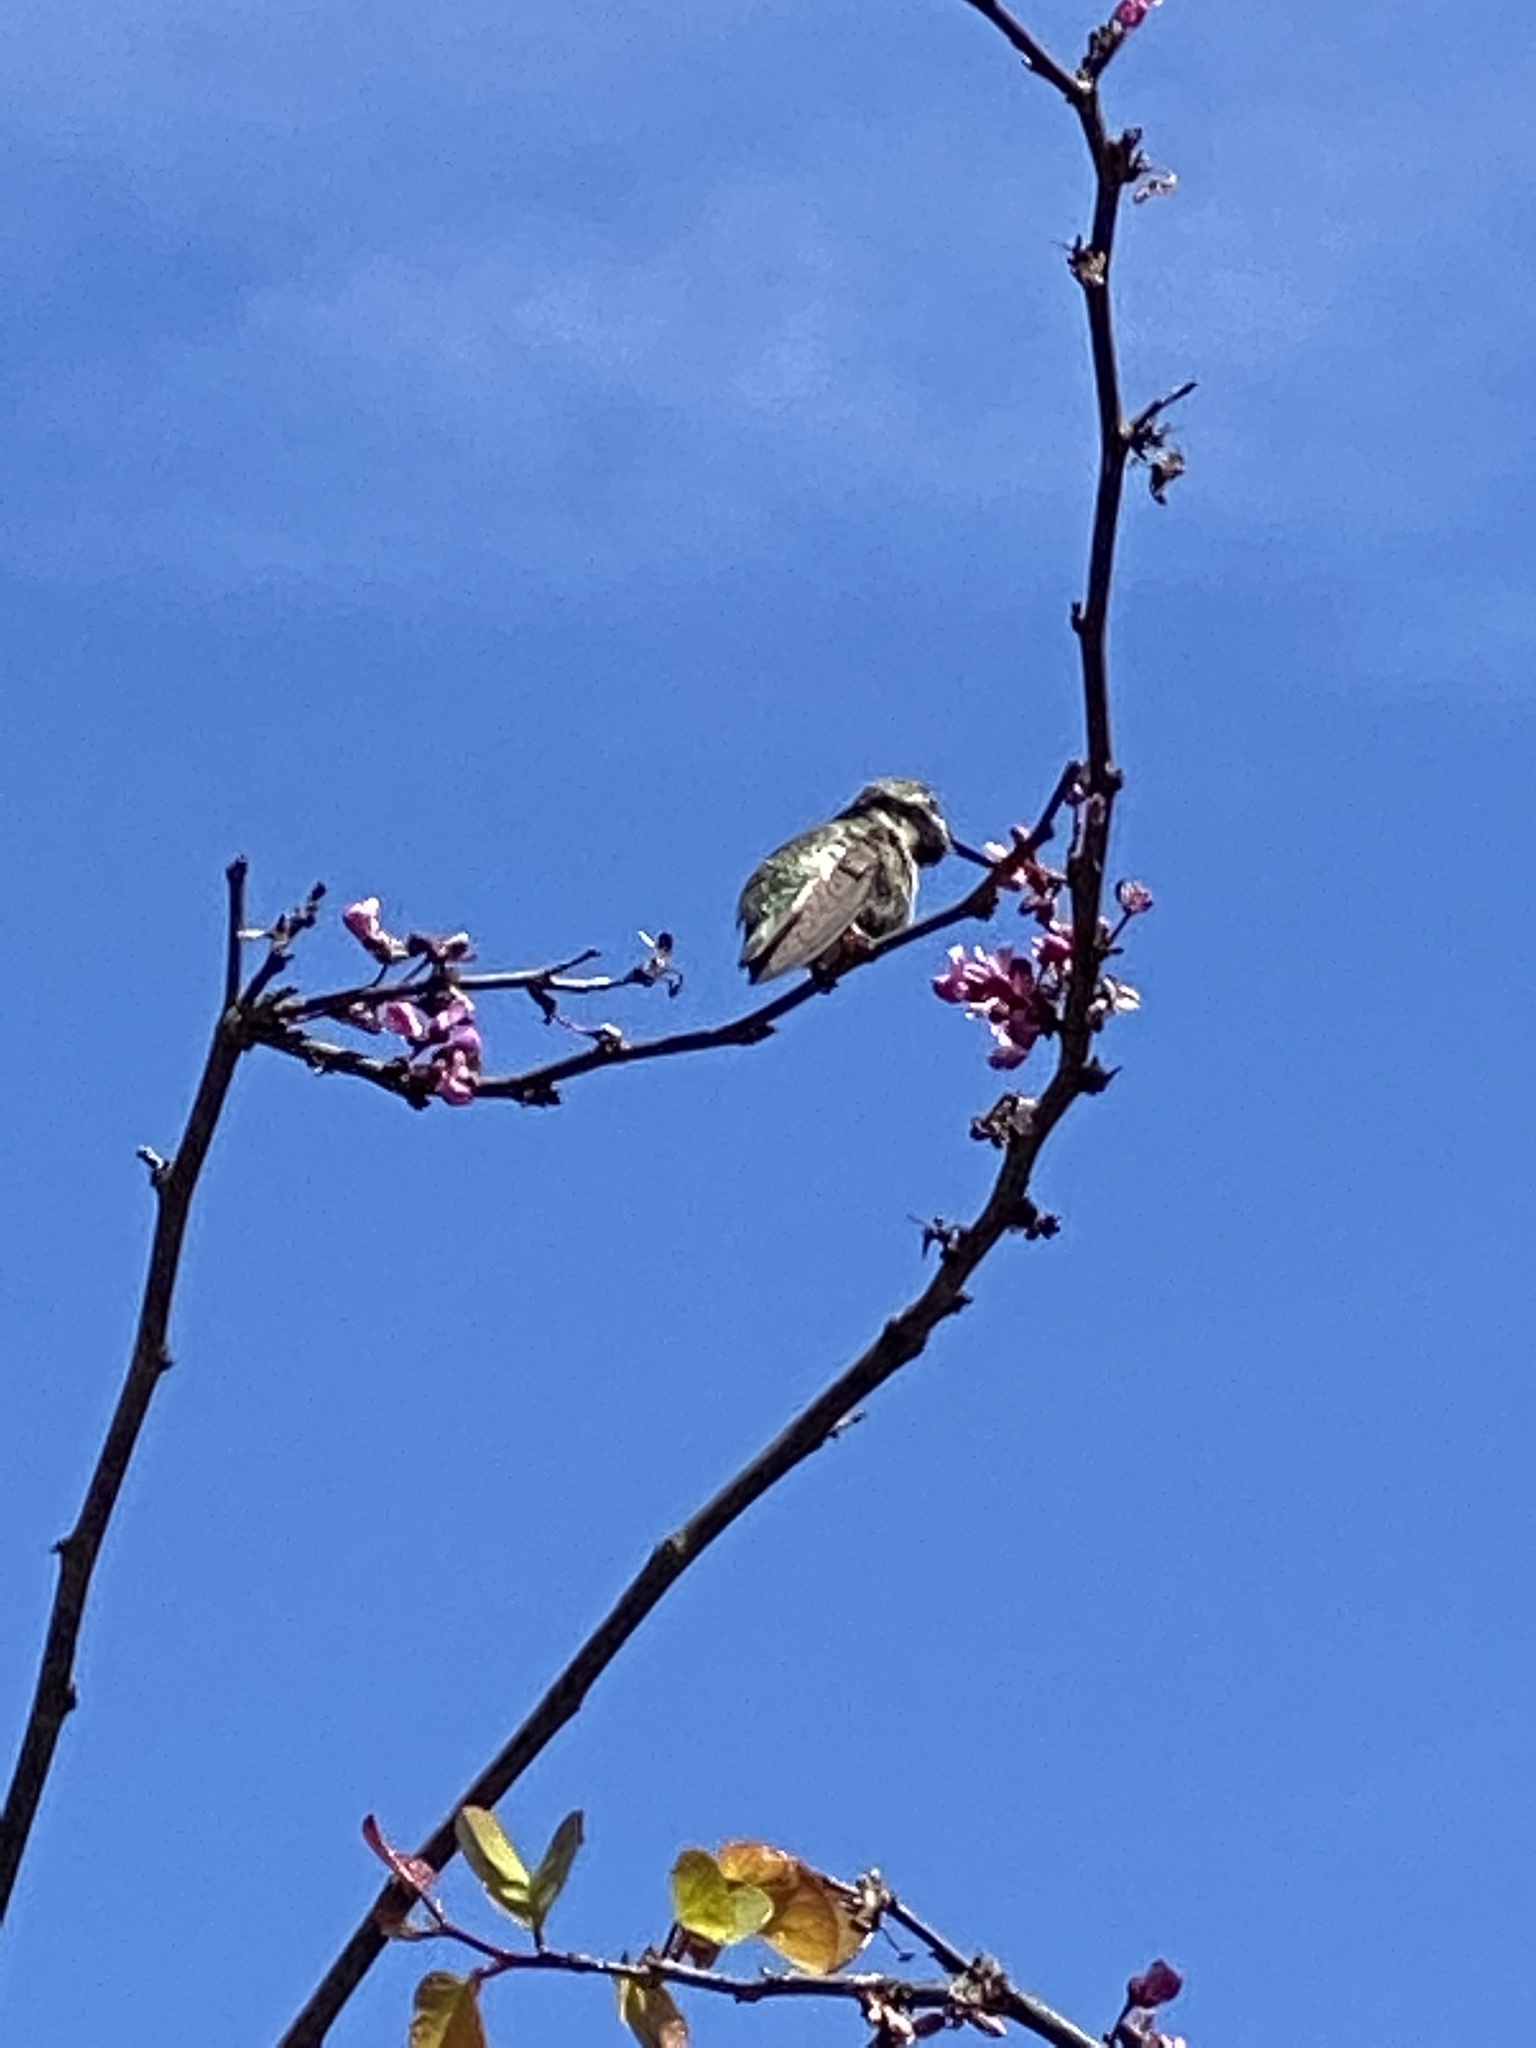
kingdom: Animalia
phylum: Chordata
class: Aves
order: Apodiformes
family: Trochilidae
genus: Calypte
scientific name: Calypte anna
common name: Anna's hummingbird
